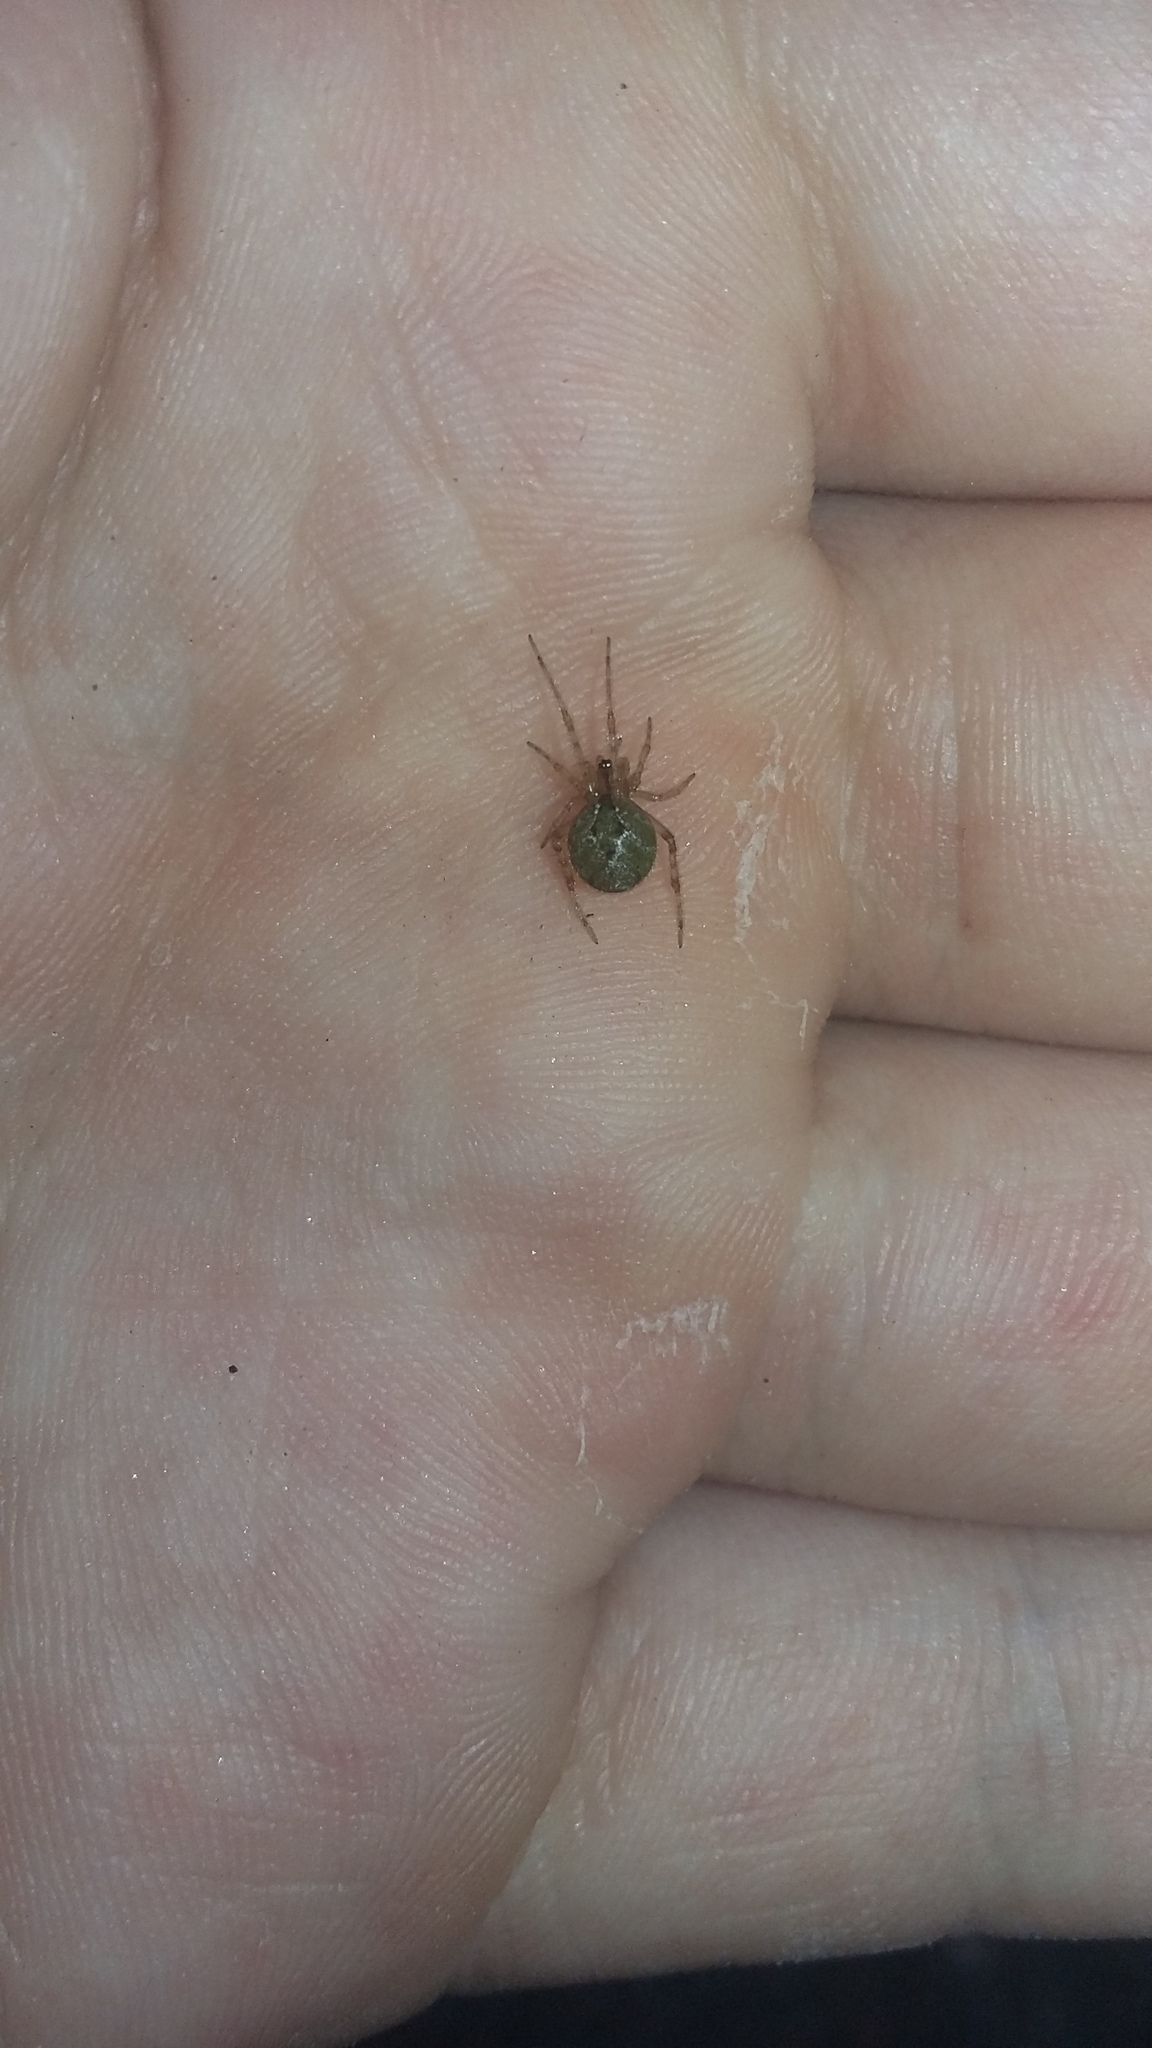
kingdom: Animalia
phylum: Arthropoda
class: Arachnida
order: Araneae
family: Theridiidae
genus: Cryptachaea
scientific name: Cryptachaea veruculata
